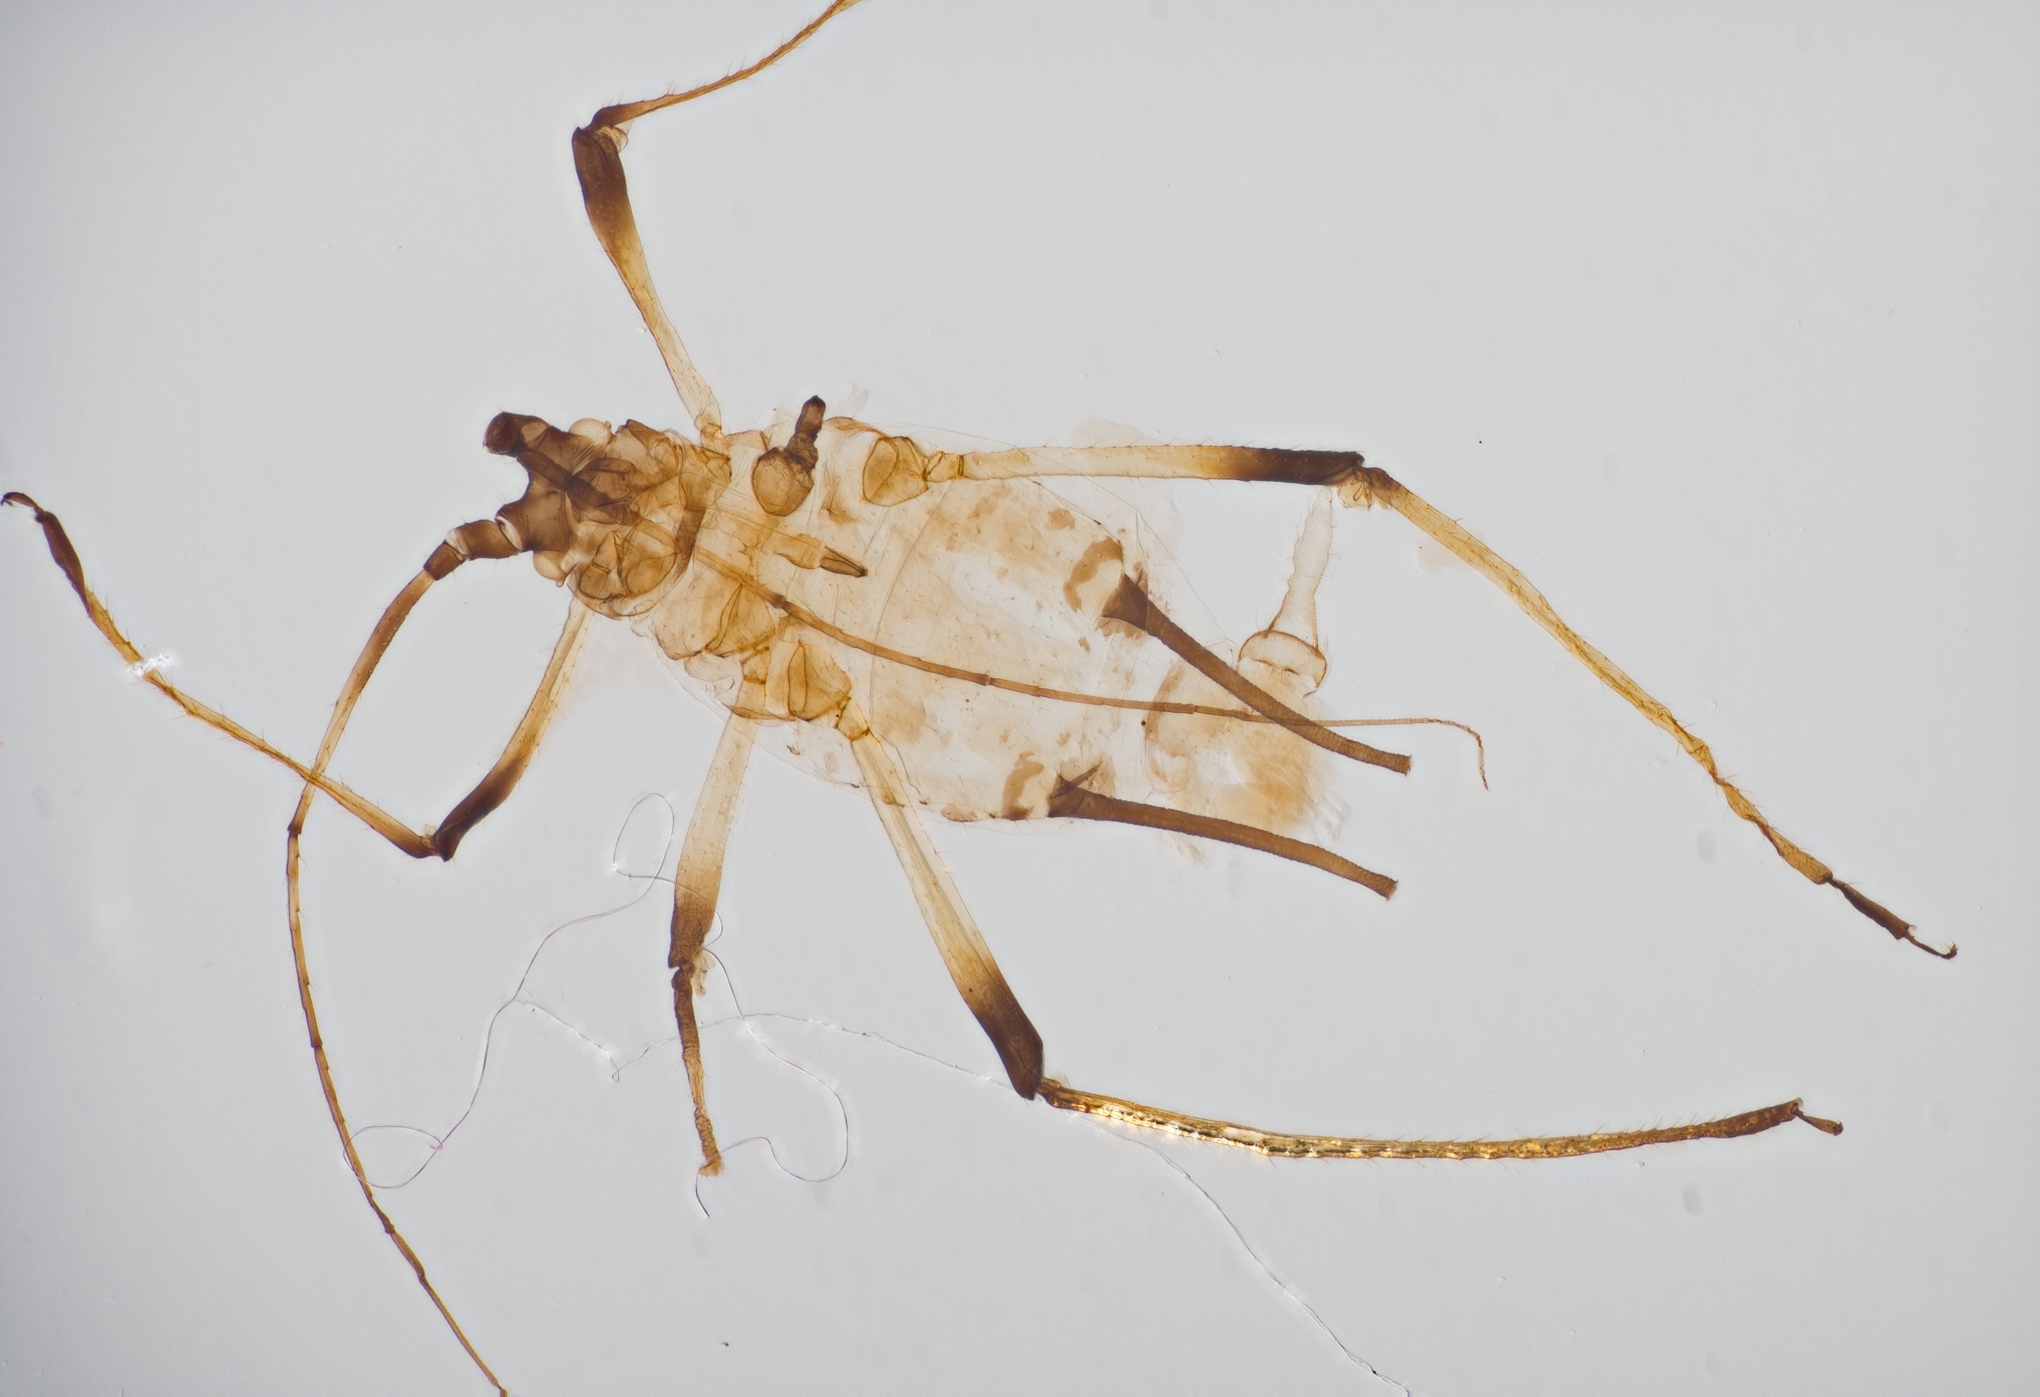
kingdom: Animalia
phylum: Arthropoda
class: Insecta
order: Hemiptera
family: Aphididae
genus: Macrosiphum
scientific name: Macrosiphum rosae
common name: Rose aphid
